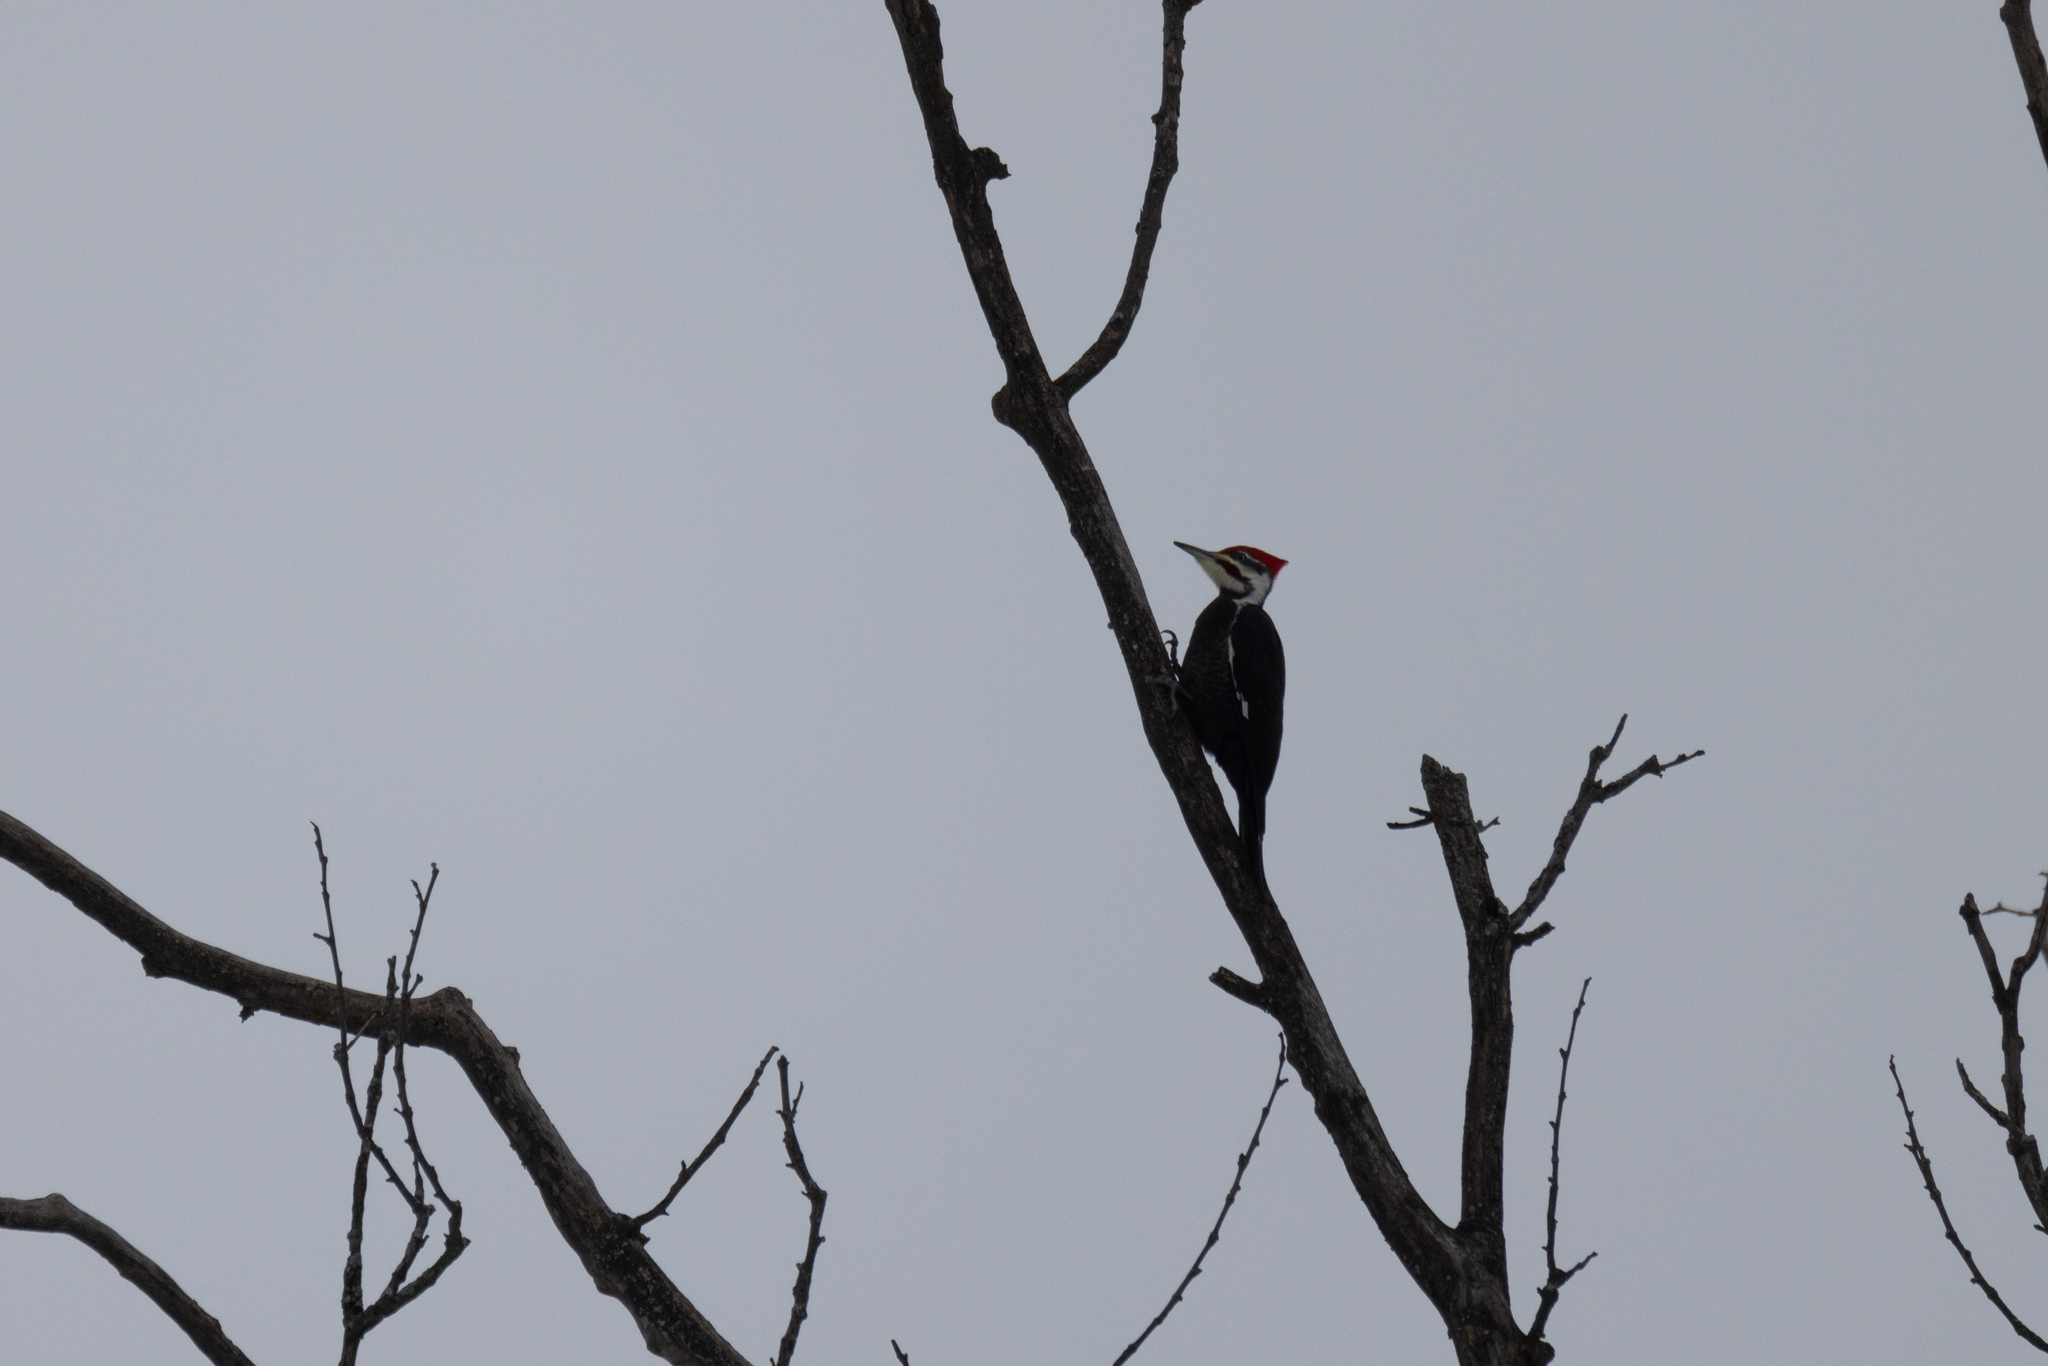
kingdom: Animalia
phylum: Chordata
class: Aves
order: Piciformes
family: Picidae
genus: Dryocopus
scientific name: Dryocopus pileatus
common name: Pileated woodpecker
